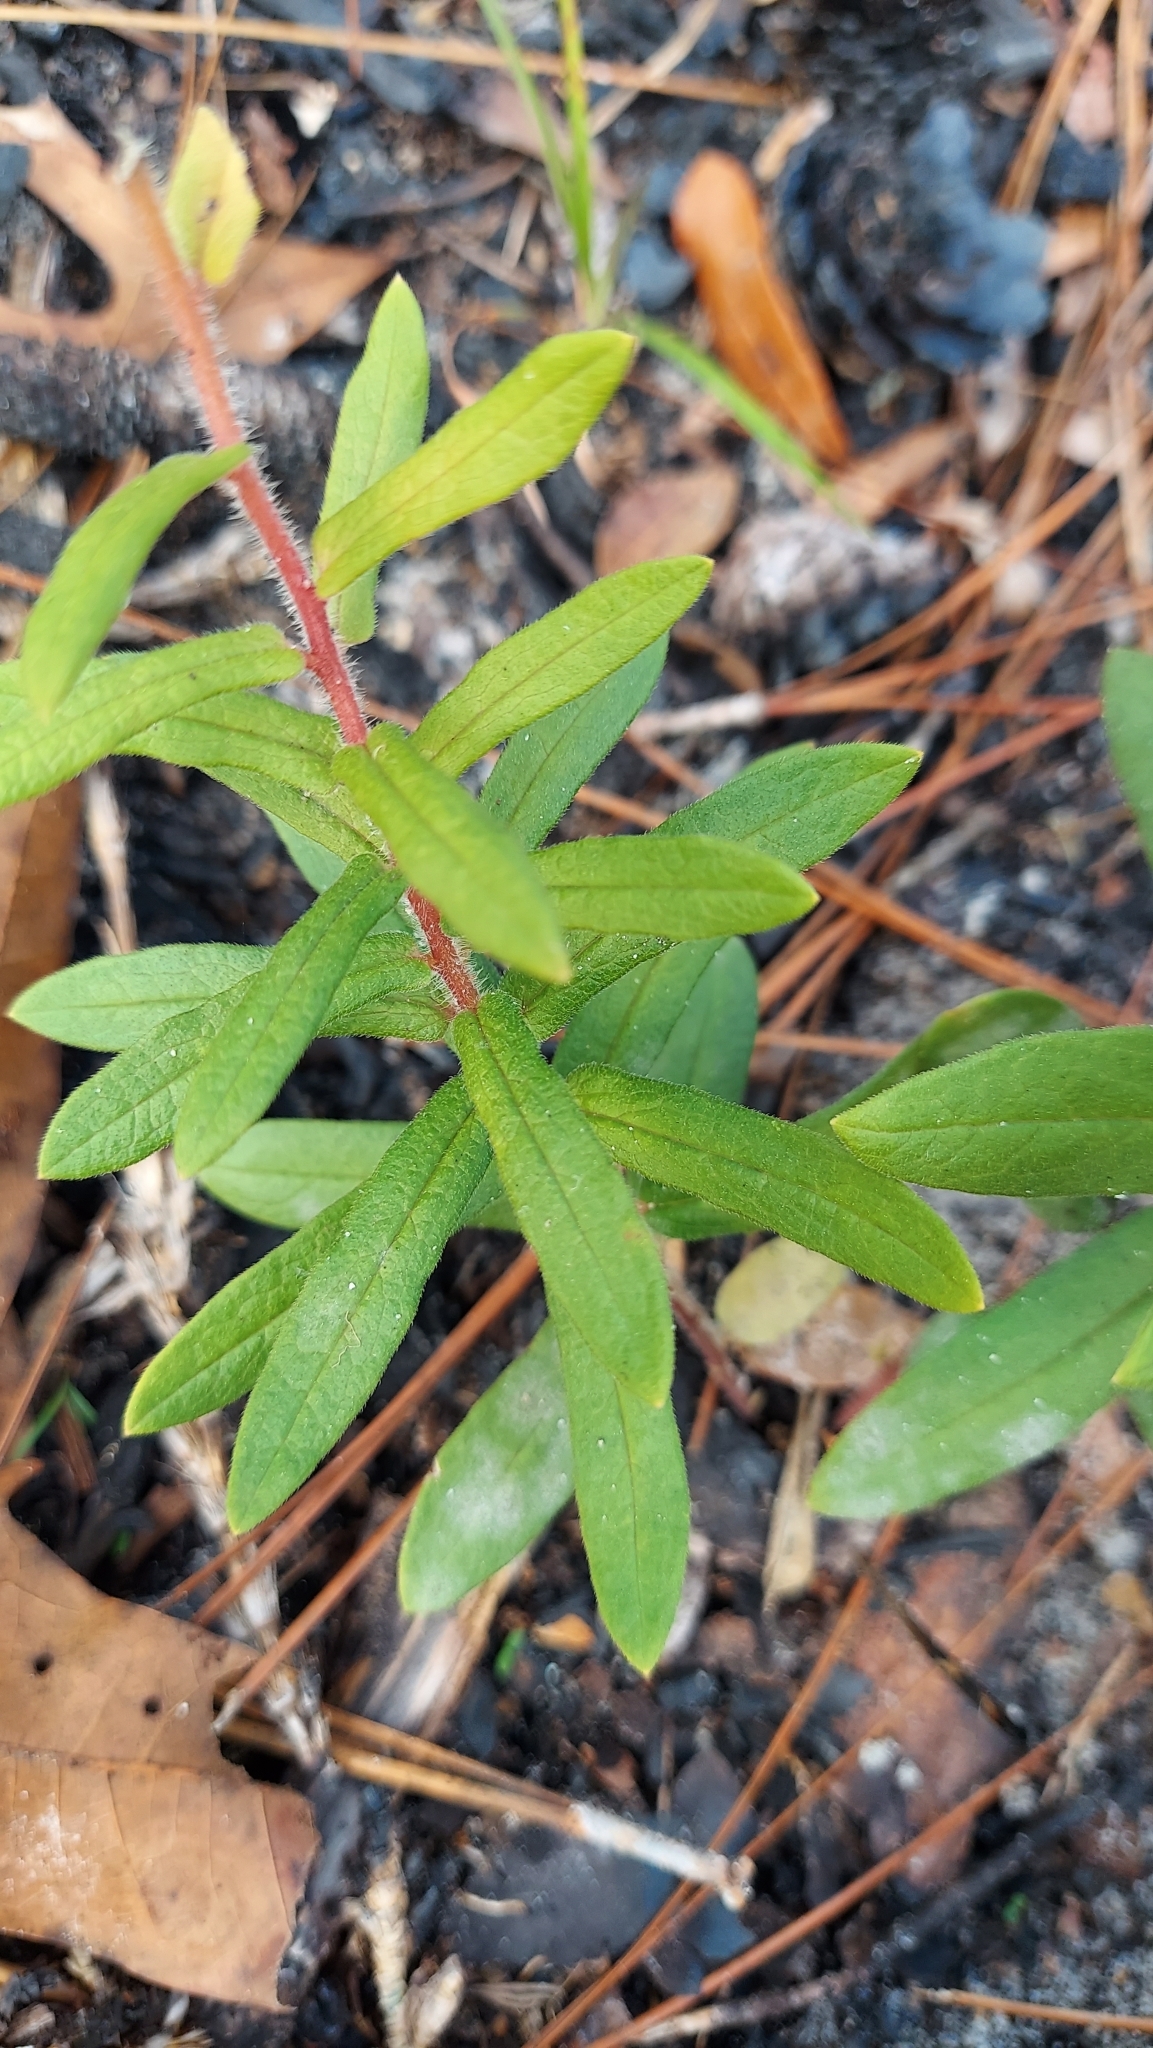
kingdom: Plantae
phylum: Tracheophyta
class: Magnoliopsida
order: Gentianales
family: Apocynaceae
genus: Asclepias
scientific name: Asclepias tuberosa
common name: Butterfly milkweed
